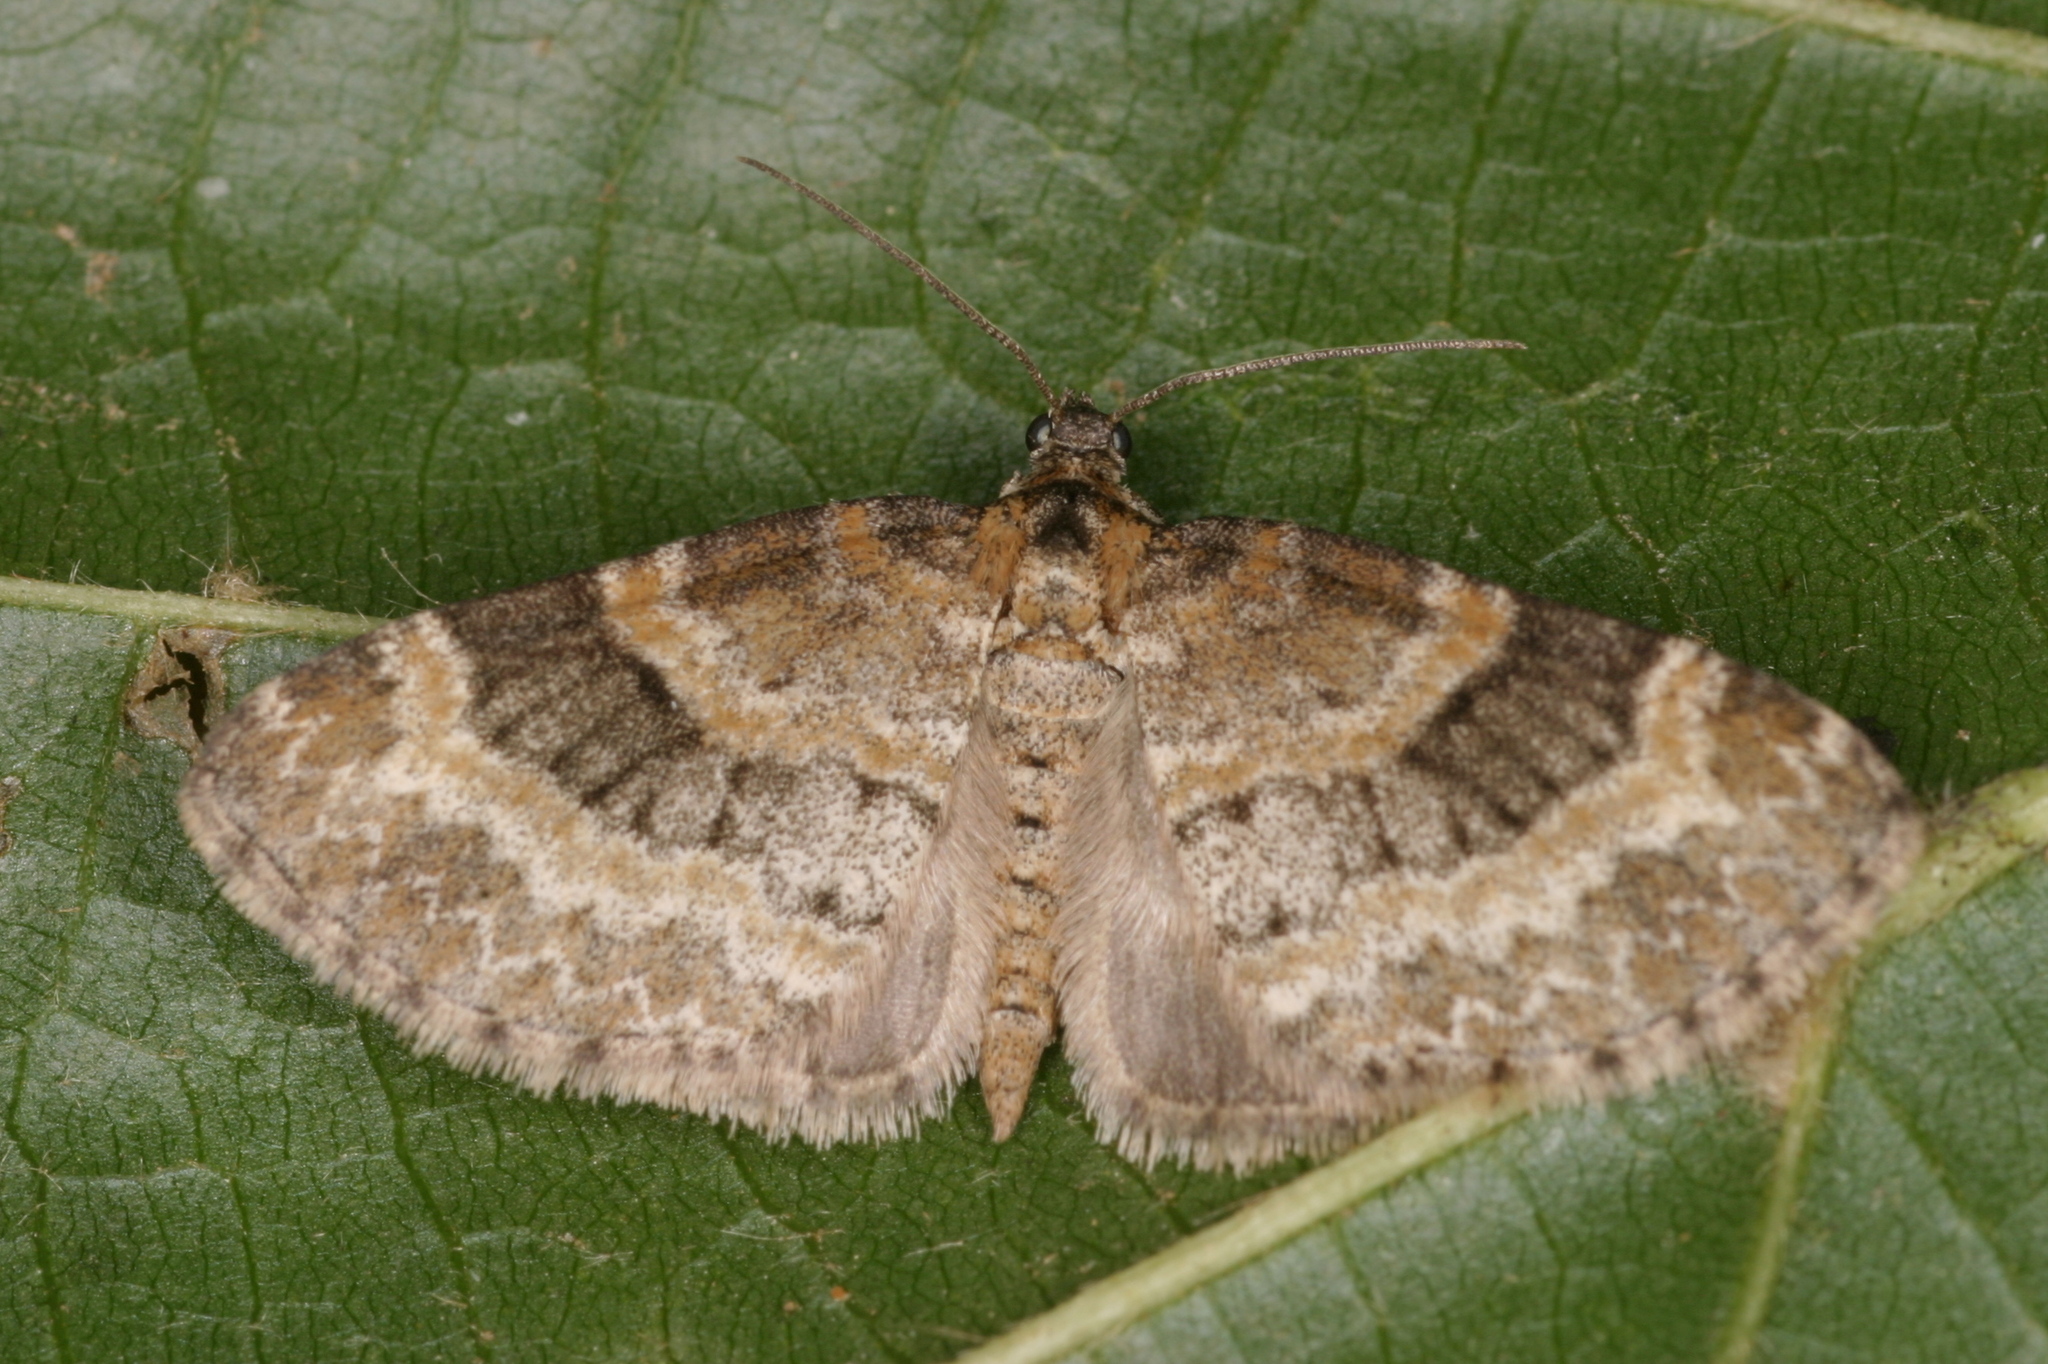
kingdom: Animalia
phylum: Arthropoda
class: Insecta
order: Lepidoptera
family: Geometridae
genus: Pterapherapteryx
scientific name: Pterapherapteryx sexalata
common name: Small seraphim
